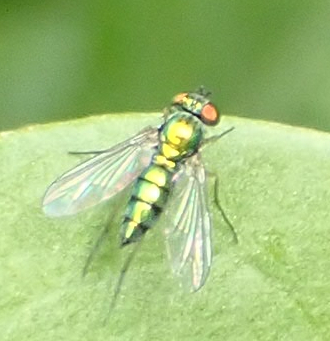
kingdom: Animalia
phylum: Arthropoda
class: Insecta
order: Diptera
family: Dolichopodidae
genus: Condylostylus
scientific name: Condylostylus
